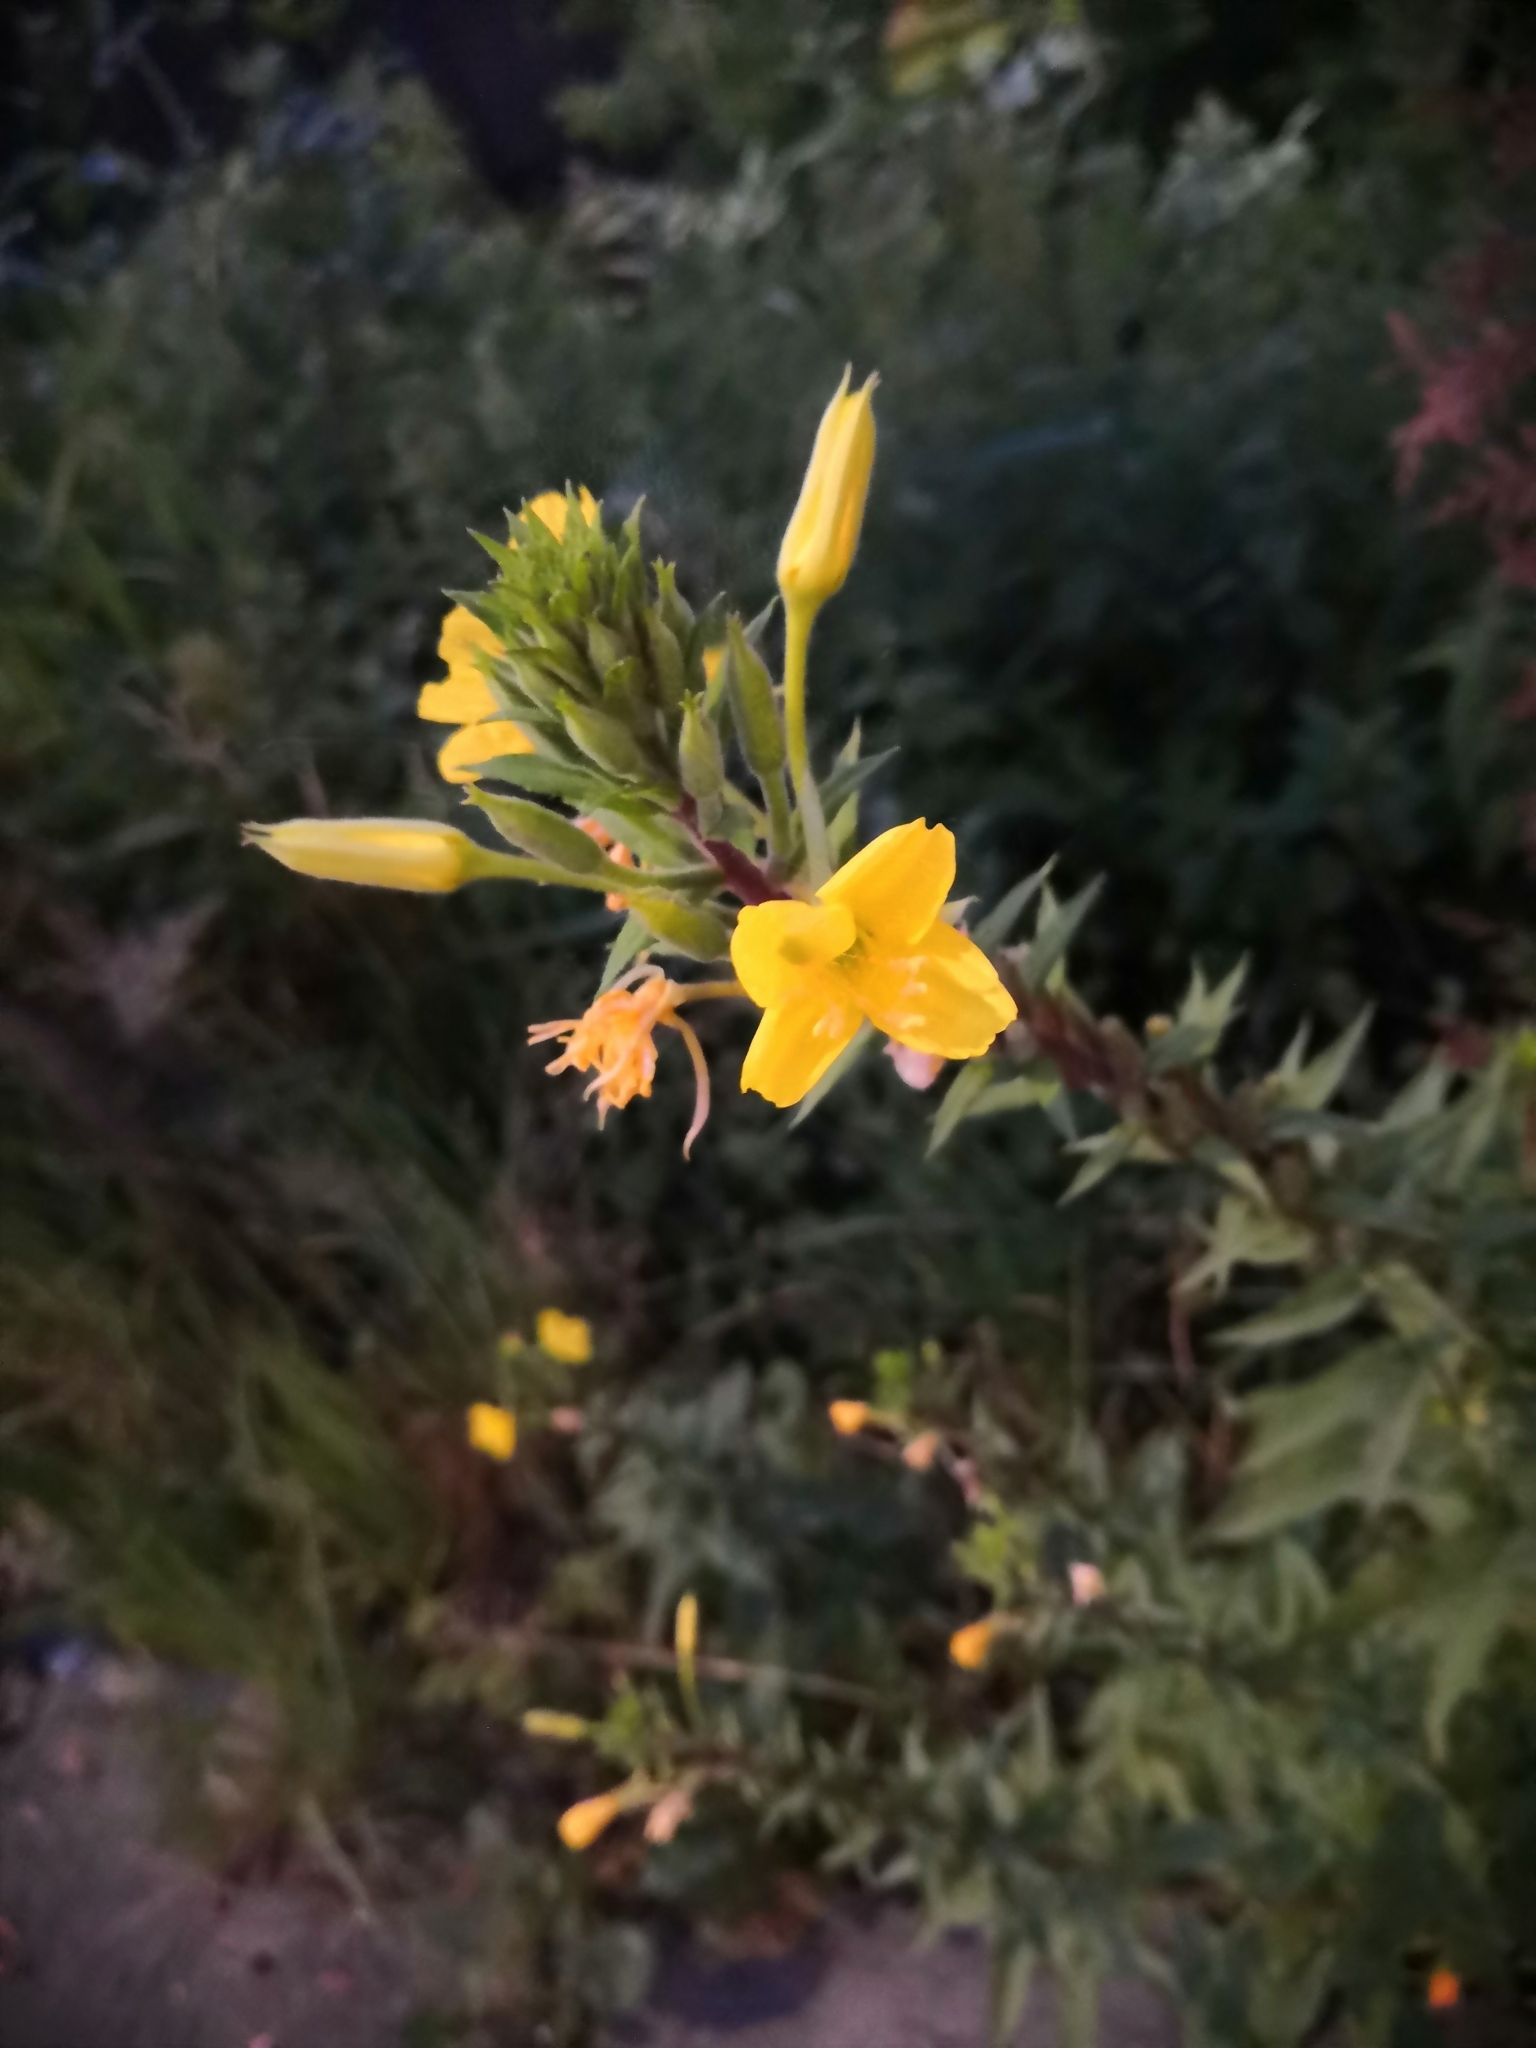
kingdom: Plantae
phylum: Tracheophyta
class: Magnoliopsida
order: Myrtales
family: Onagraceae
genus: Oenothera
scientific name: Oenothera rubricaulis
